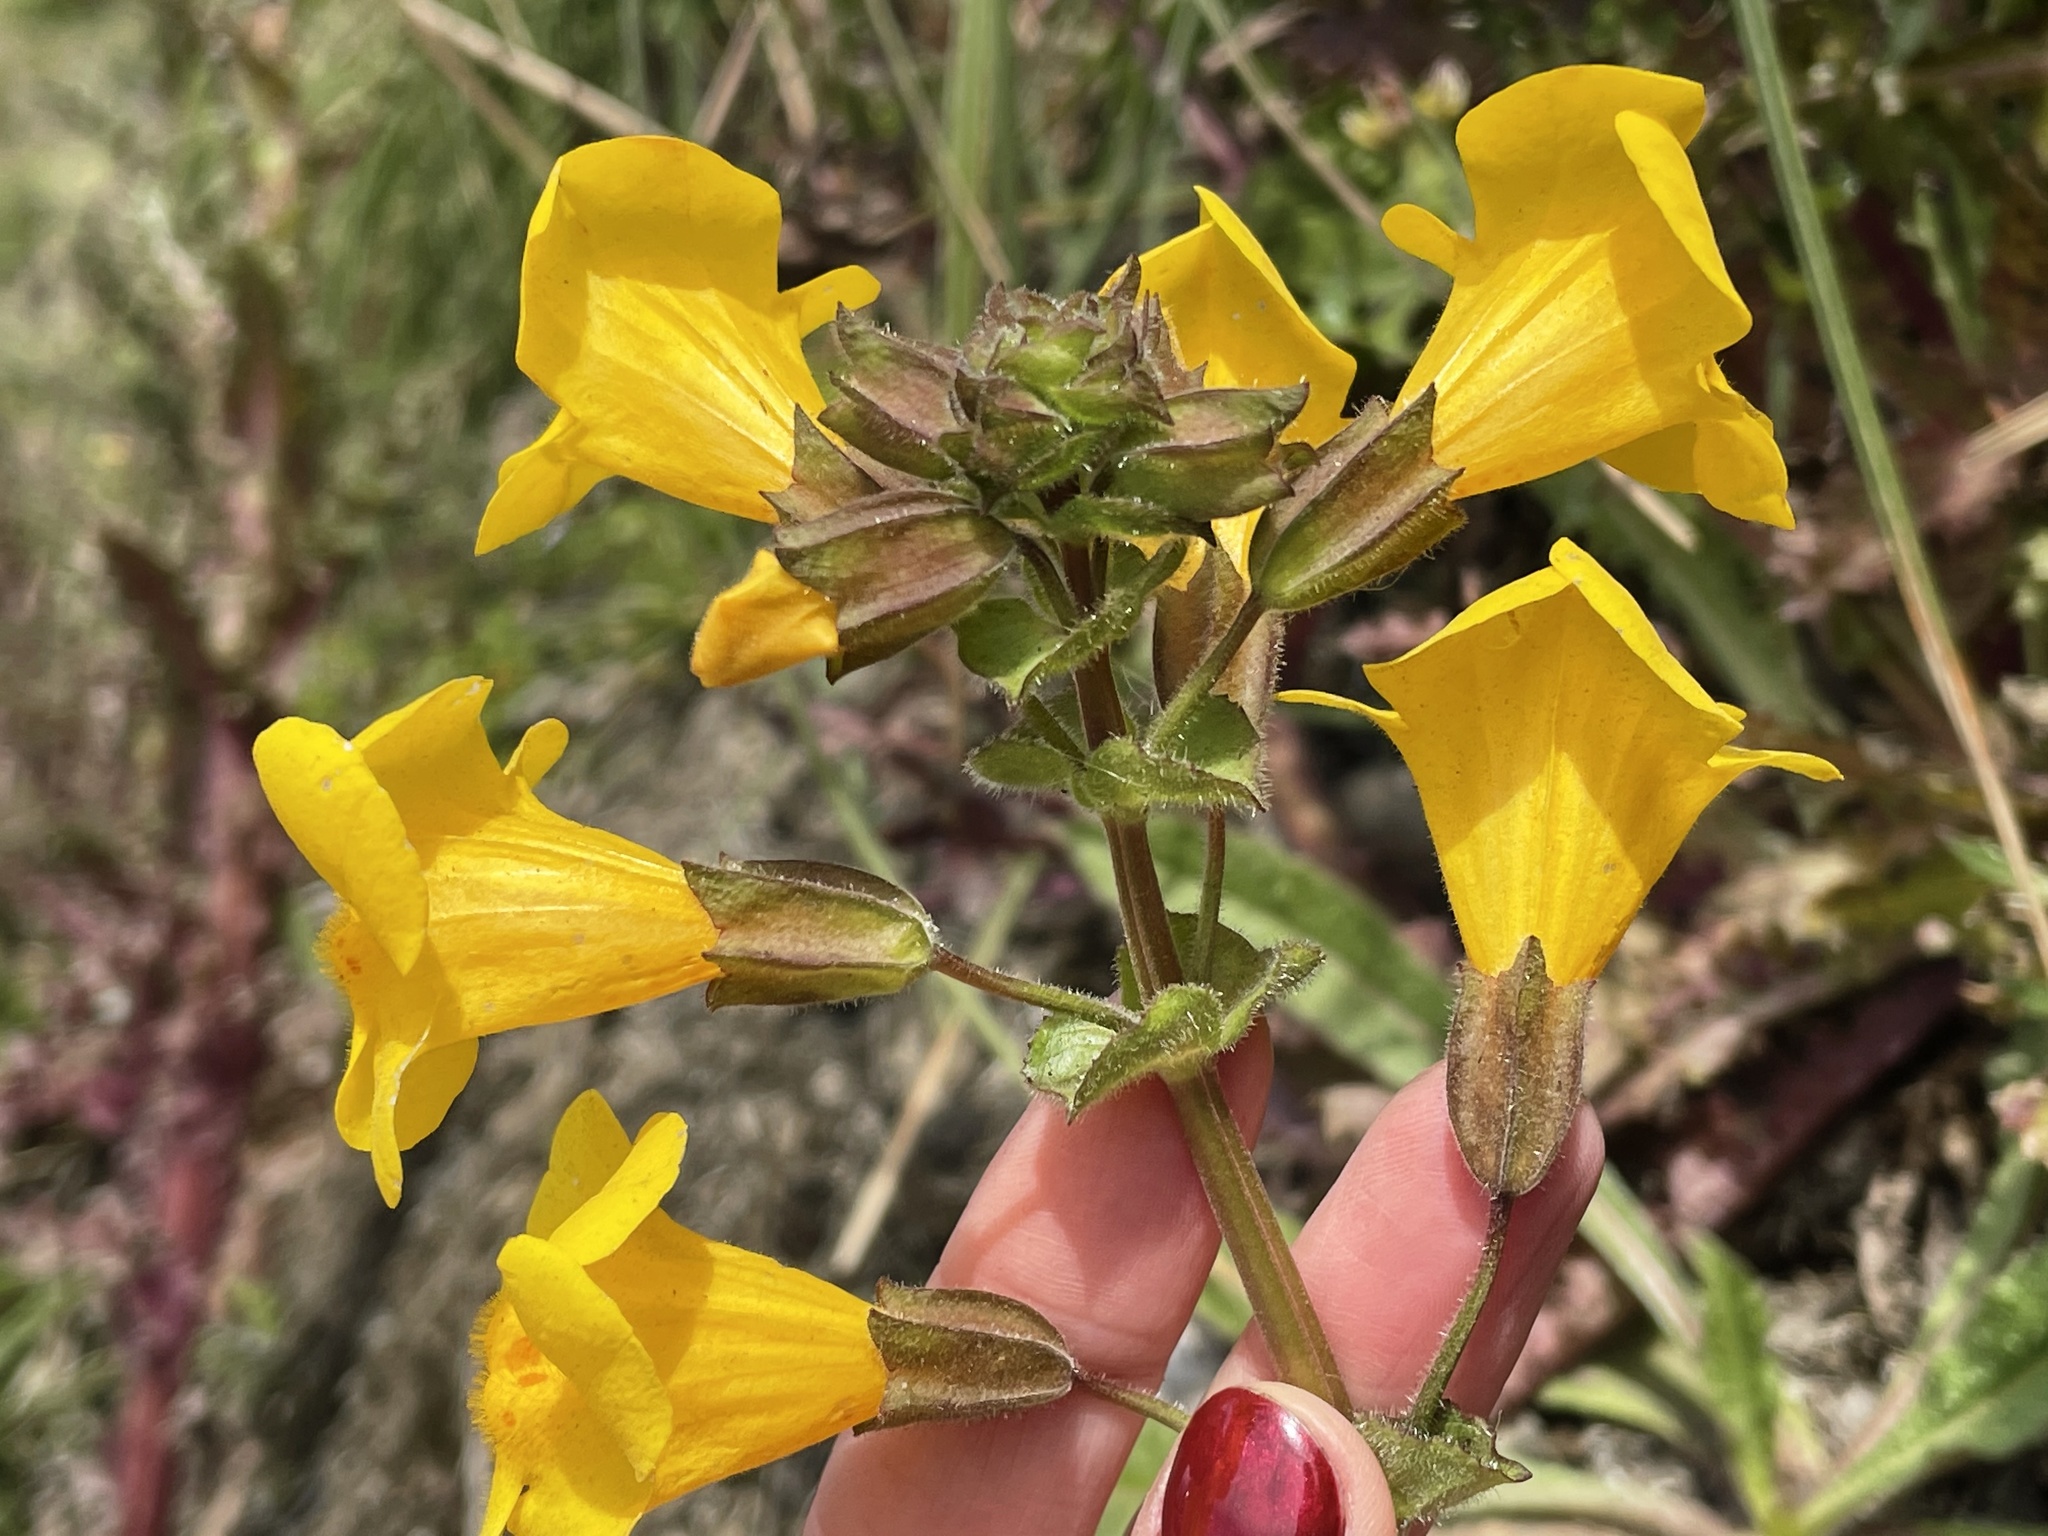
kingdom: Plantae
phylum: Tracheophyta
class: Magnoliopsida
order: Lamiales
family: Phrymaceae
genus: Erythranthe
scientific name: Erythranthe guttata
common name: Monkeyflower
